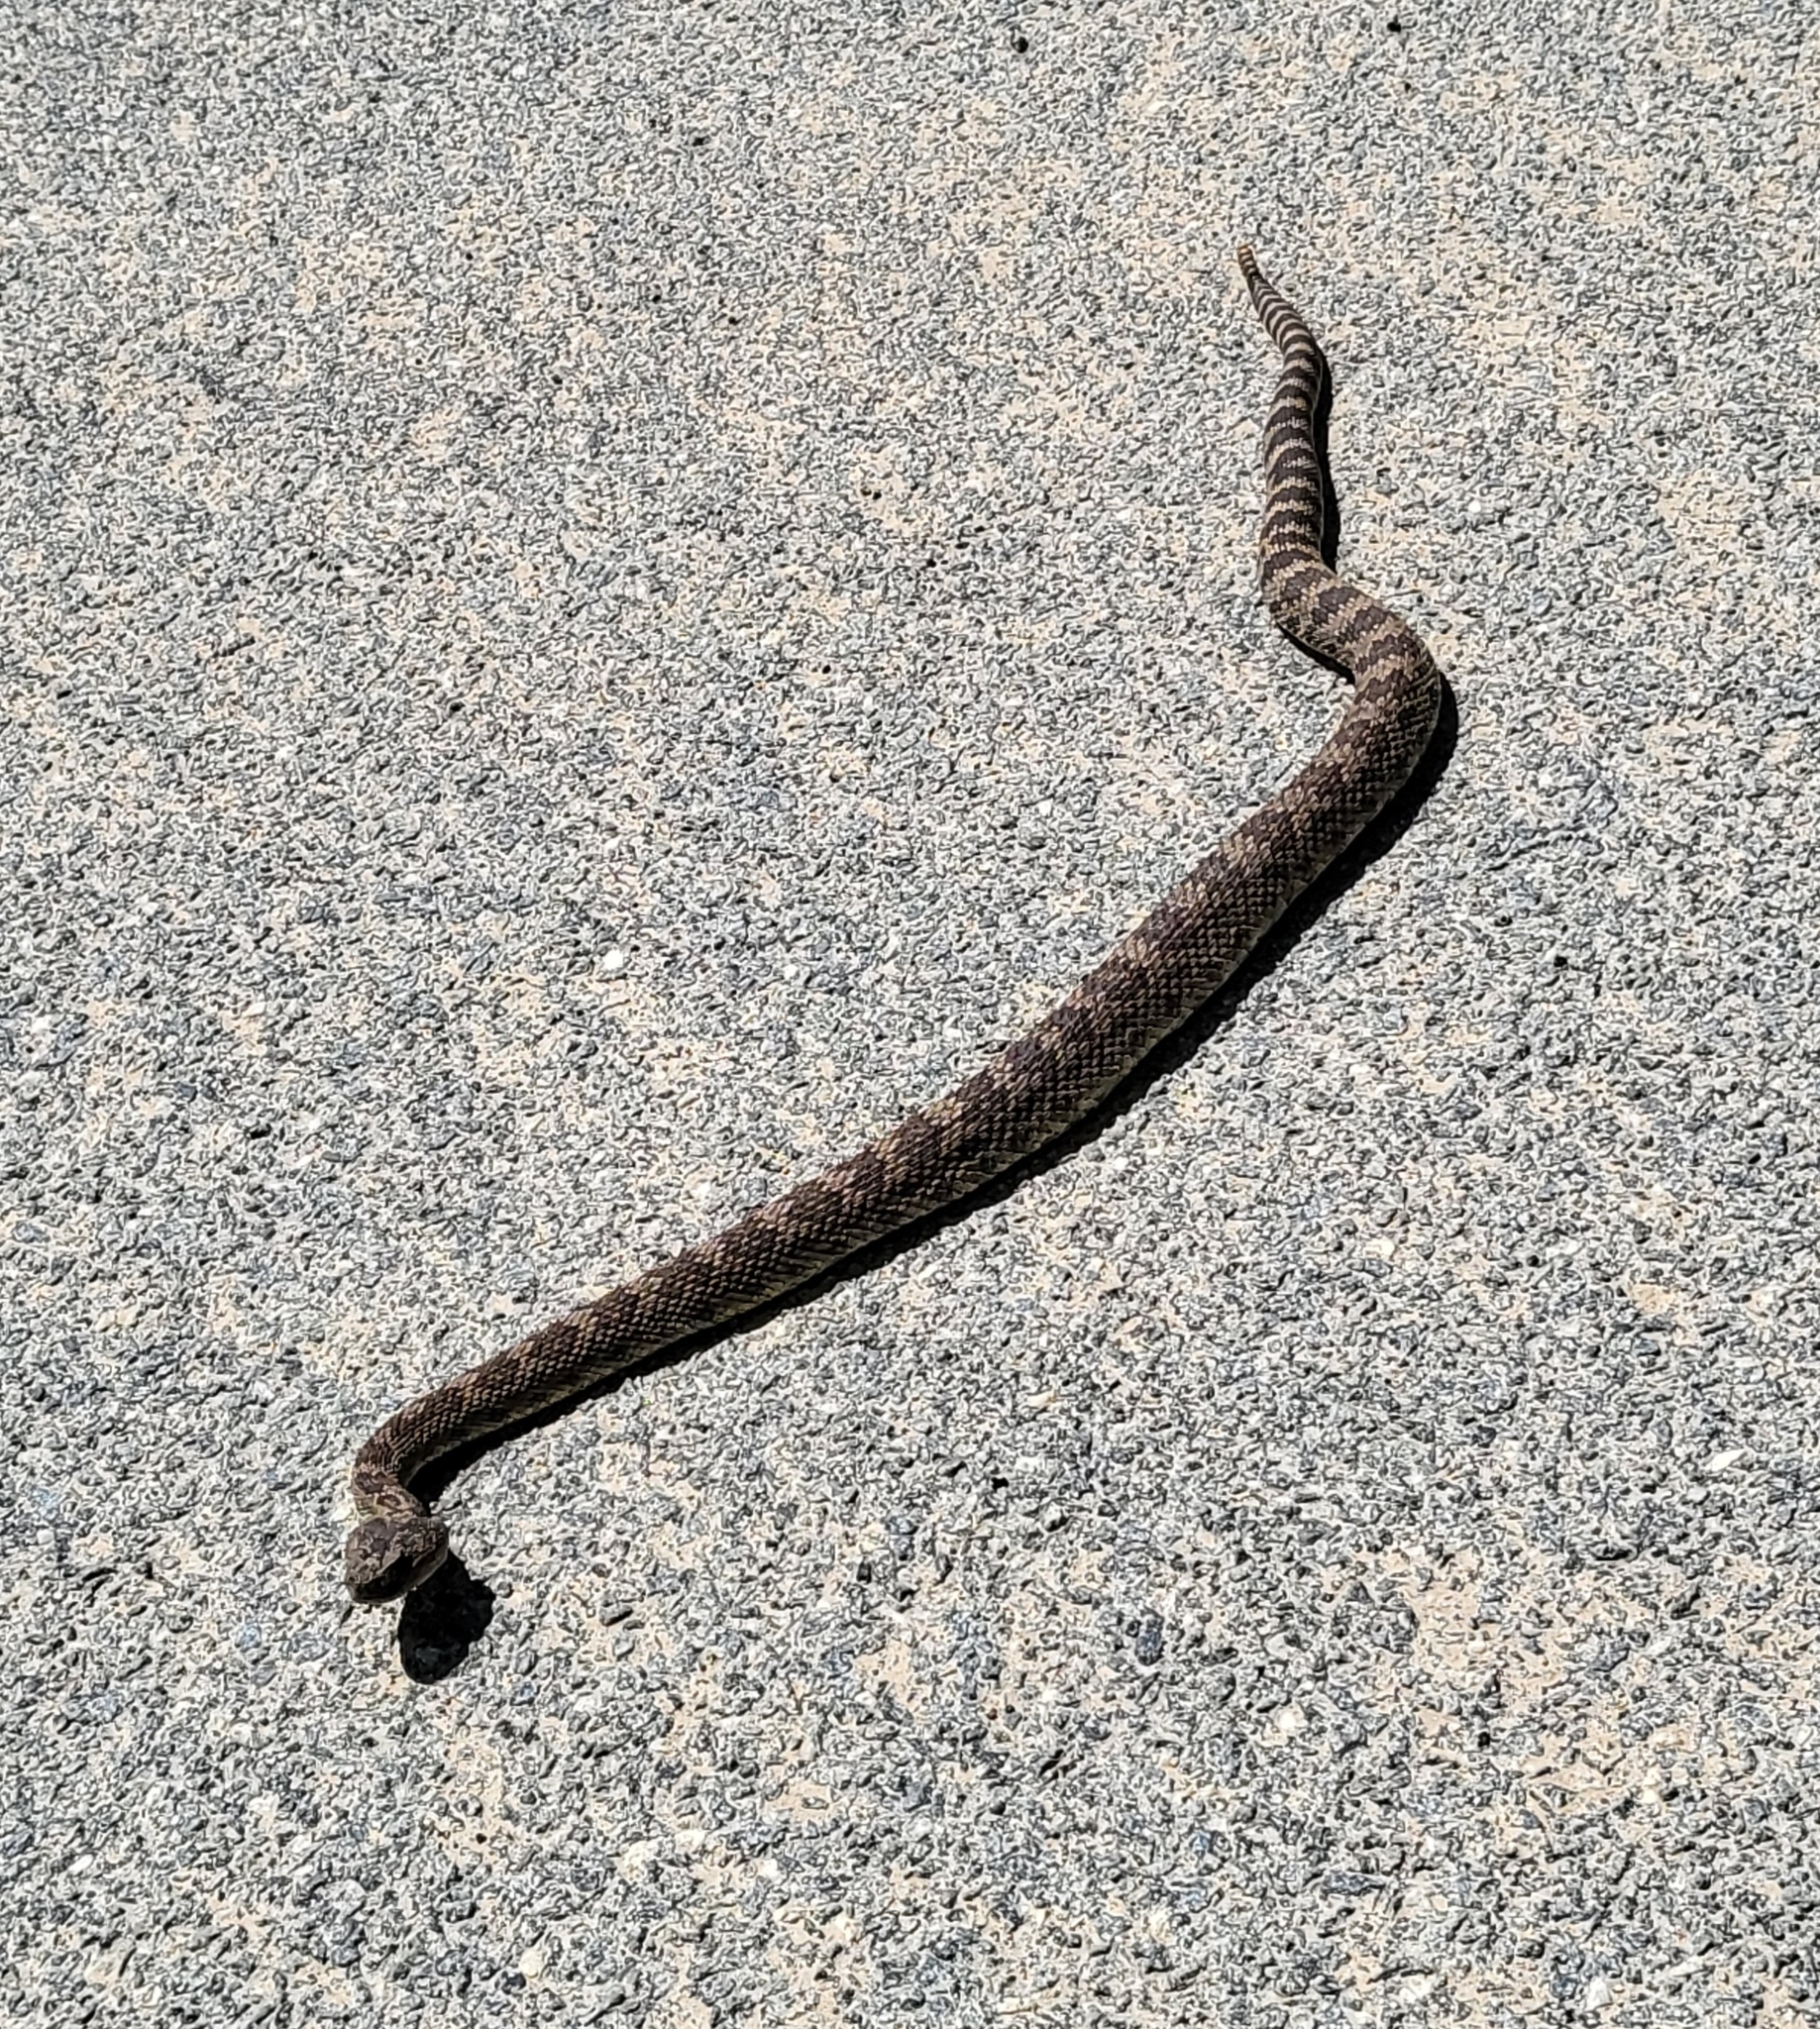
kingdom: Animalia
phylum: Chordata
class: Squamata
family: Viperidae
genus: Crotalus
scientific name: Crotalus oreganus
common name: Abyssus
